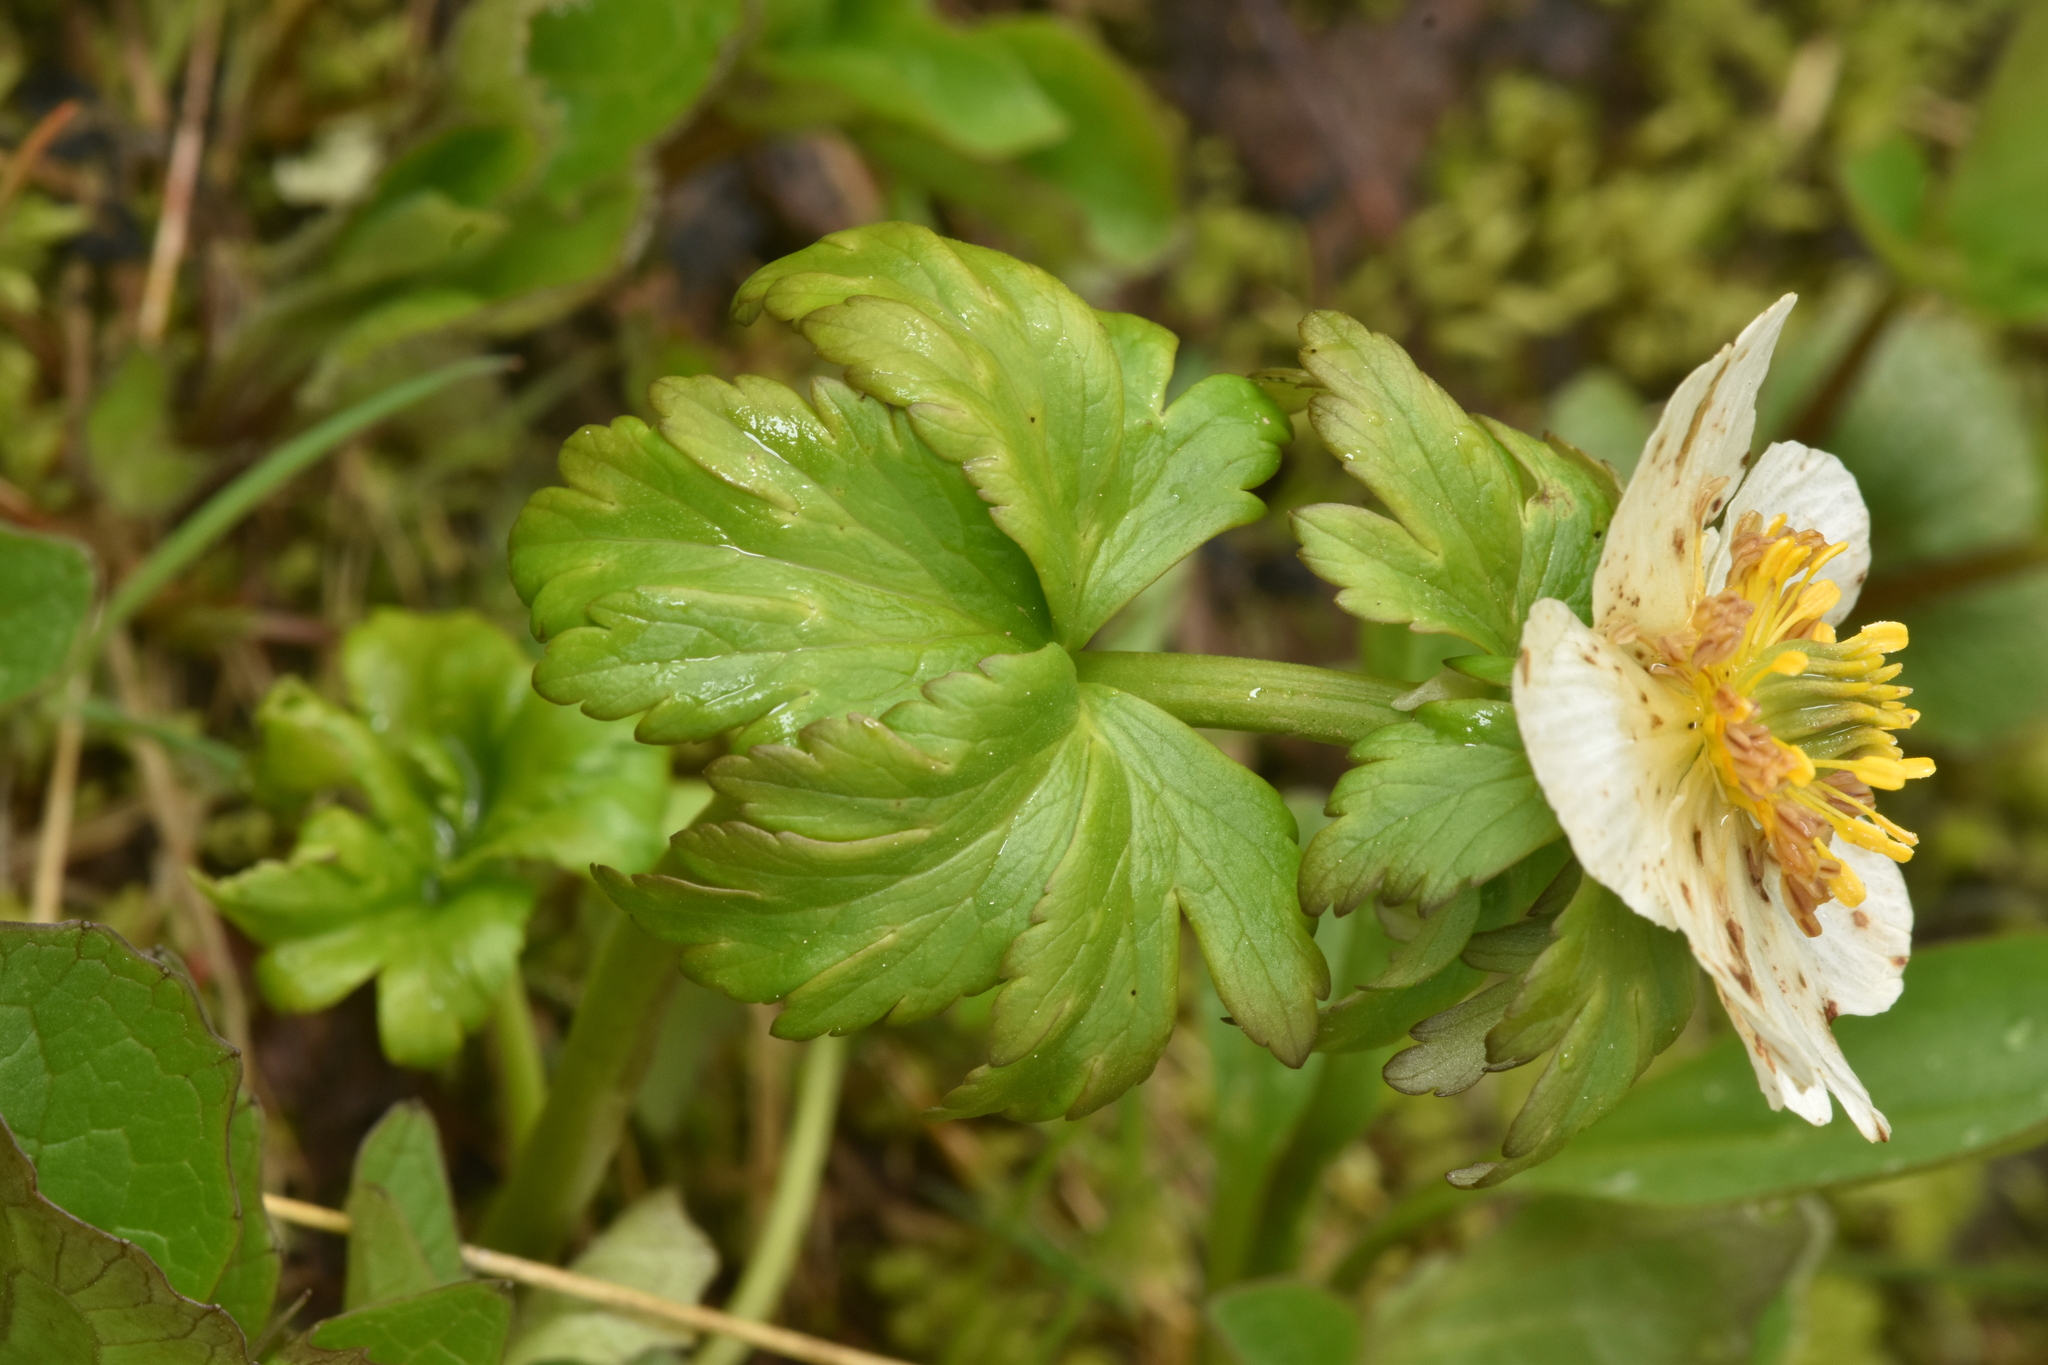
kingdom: Plantae
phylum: Tracheophyta
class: Magnoliopsida
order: Ranunculales
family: Ranunculaceae
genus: Trollius
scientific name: Trollius laxus
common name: American globeflower
